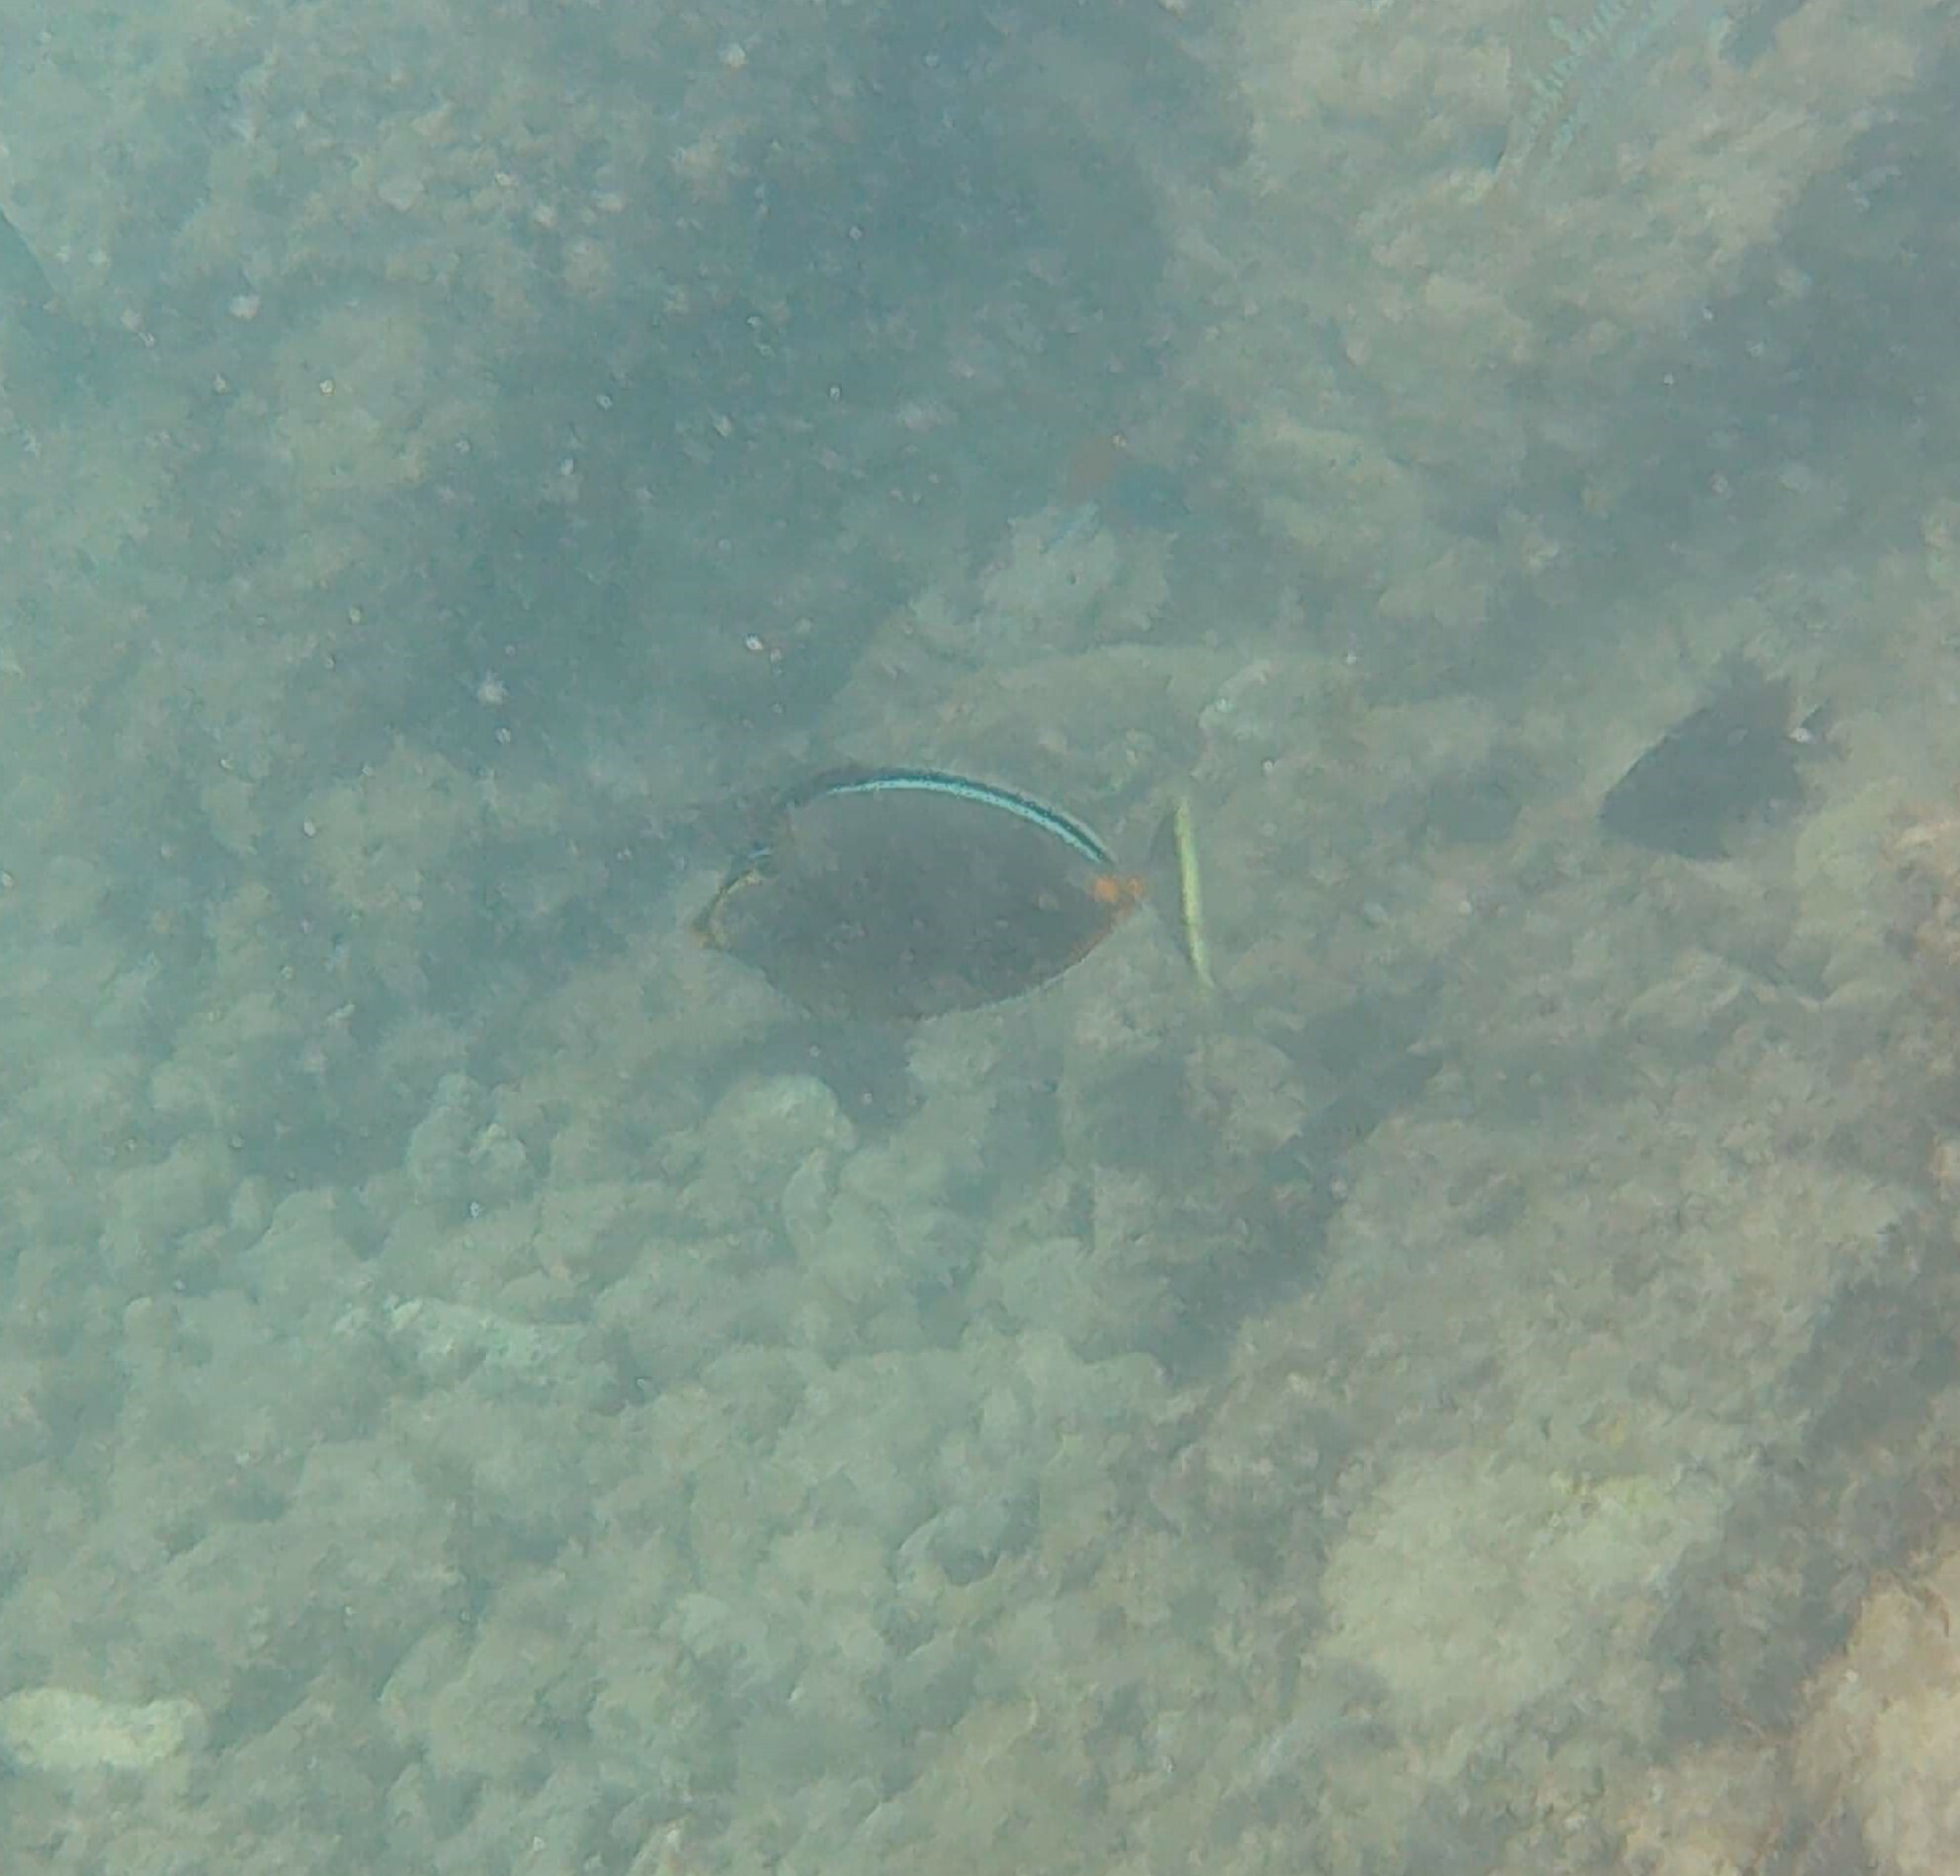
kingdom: Animalia
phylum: Chordata
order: Perciformes
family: Acanthuridae
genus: Naso
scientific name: Naso lituratus
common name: Orangespine unicornfish
